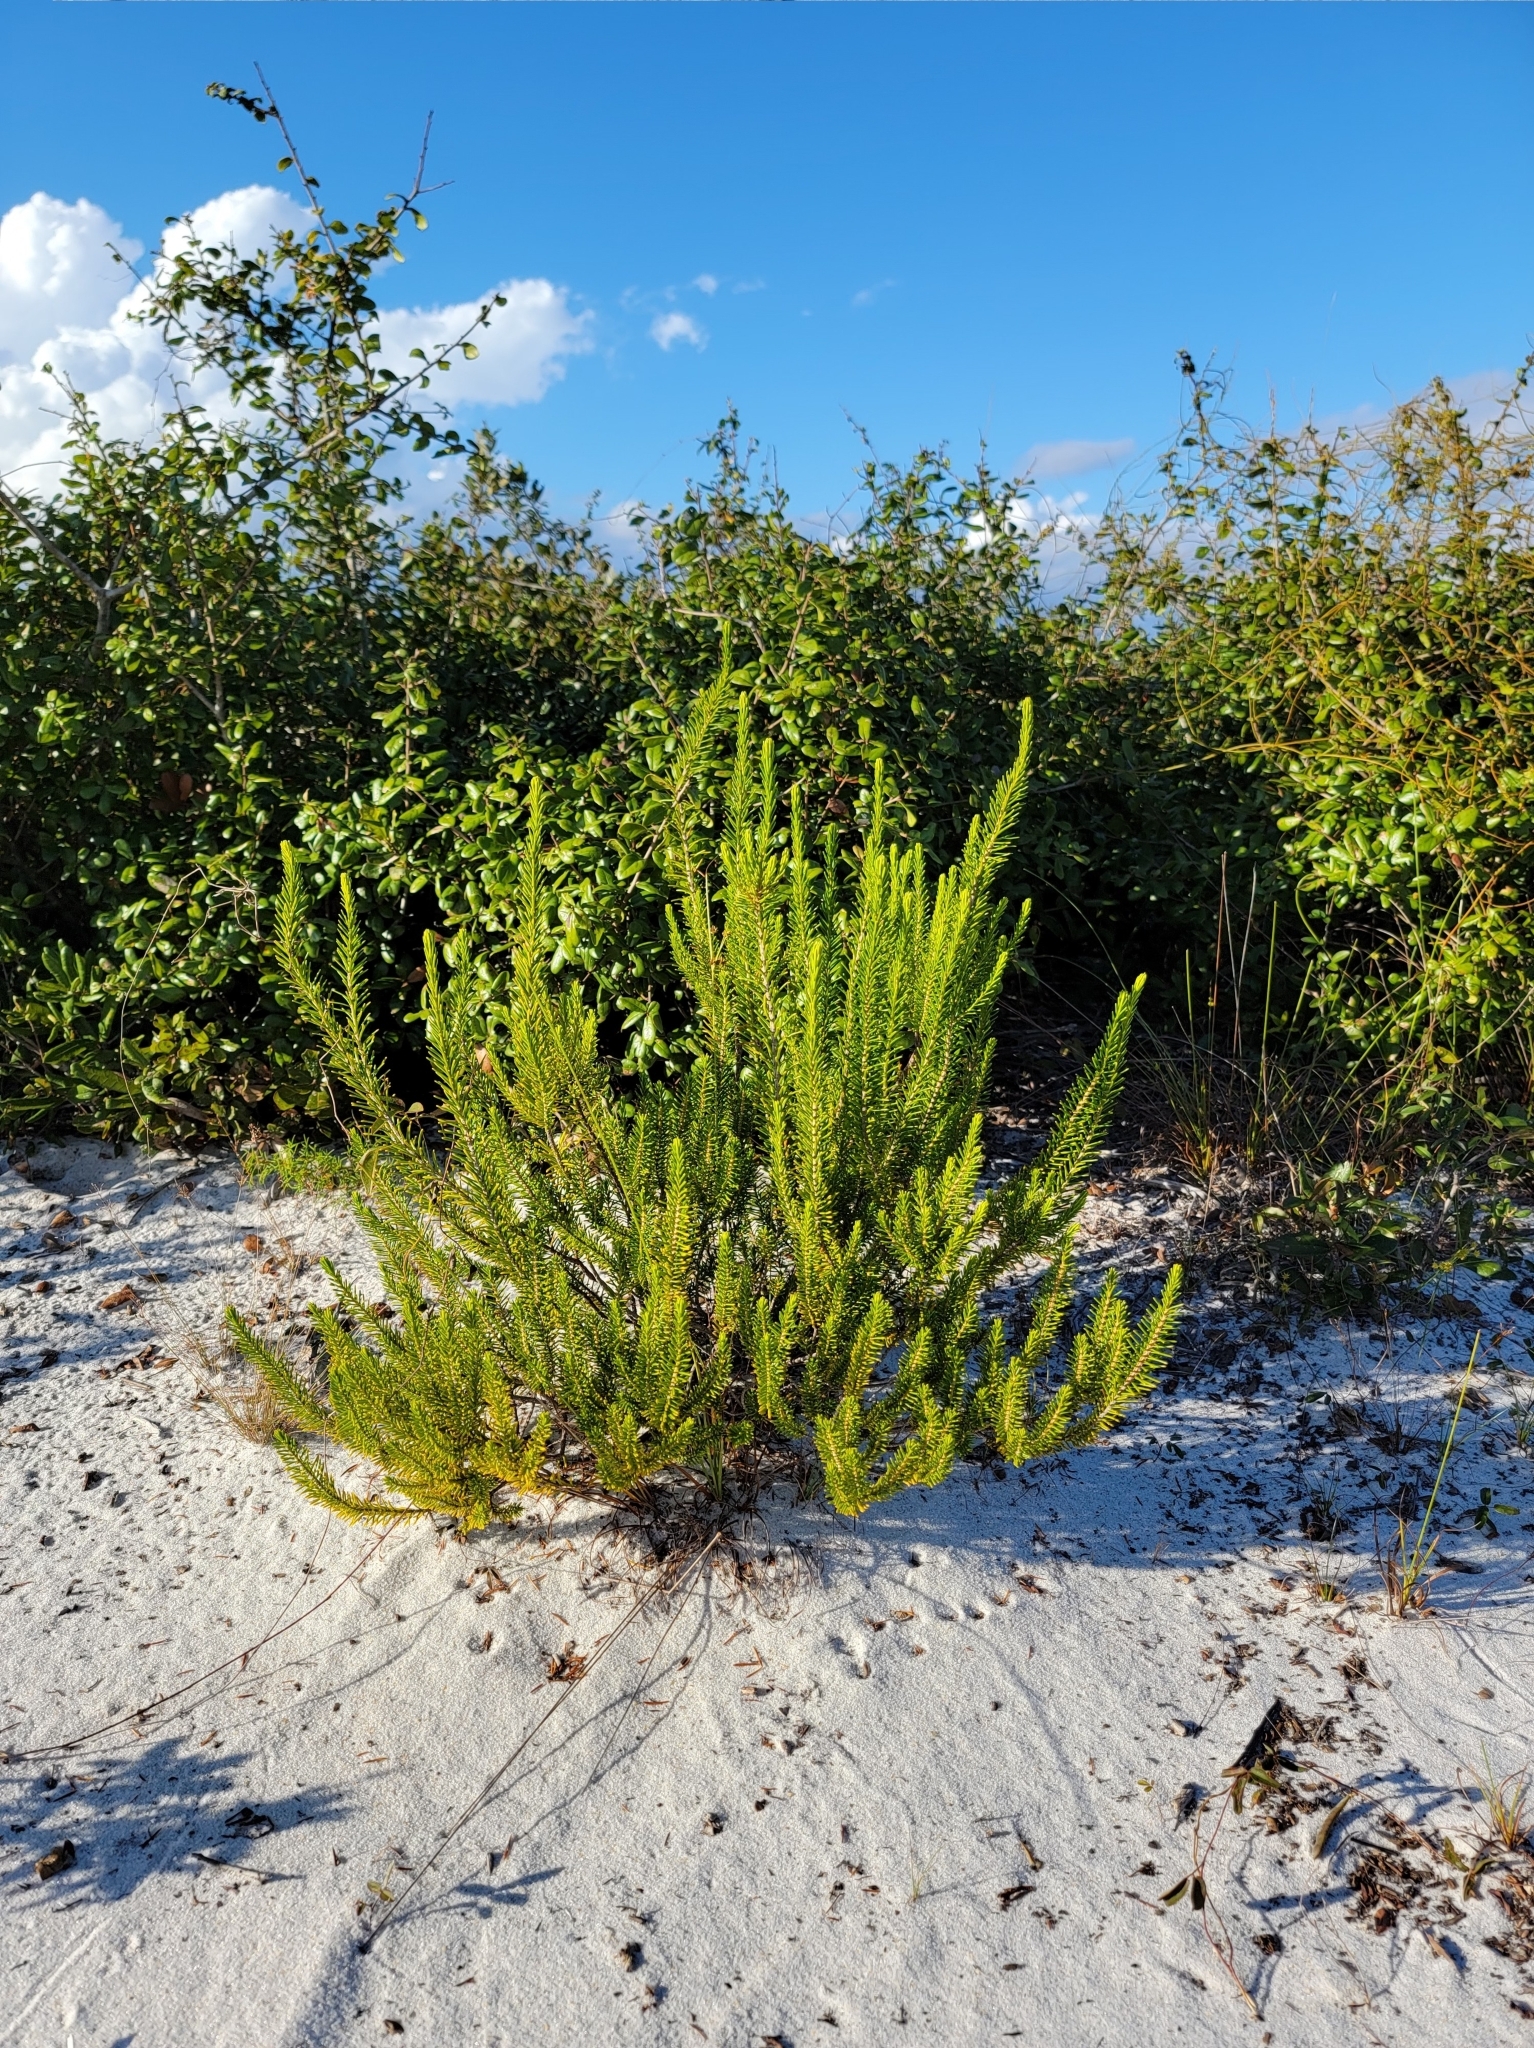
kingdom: Plantae
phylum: Tracheophyta
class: Magnoliopsida
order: Ericales
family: Ericaceae
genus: Ceratiola
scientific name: Ceratiola ericoides
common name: Sandhill-rosemary
